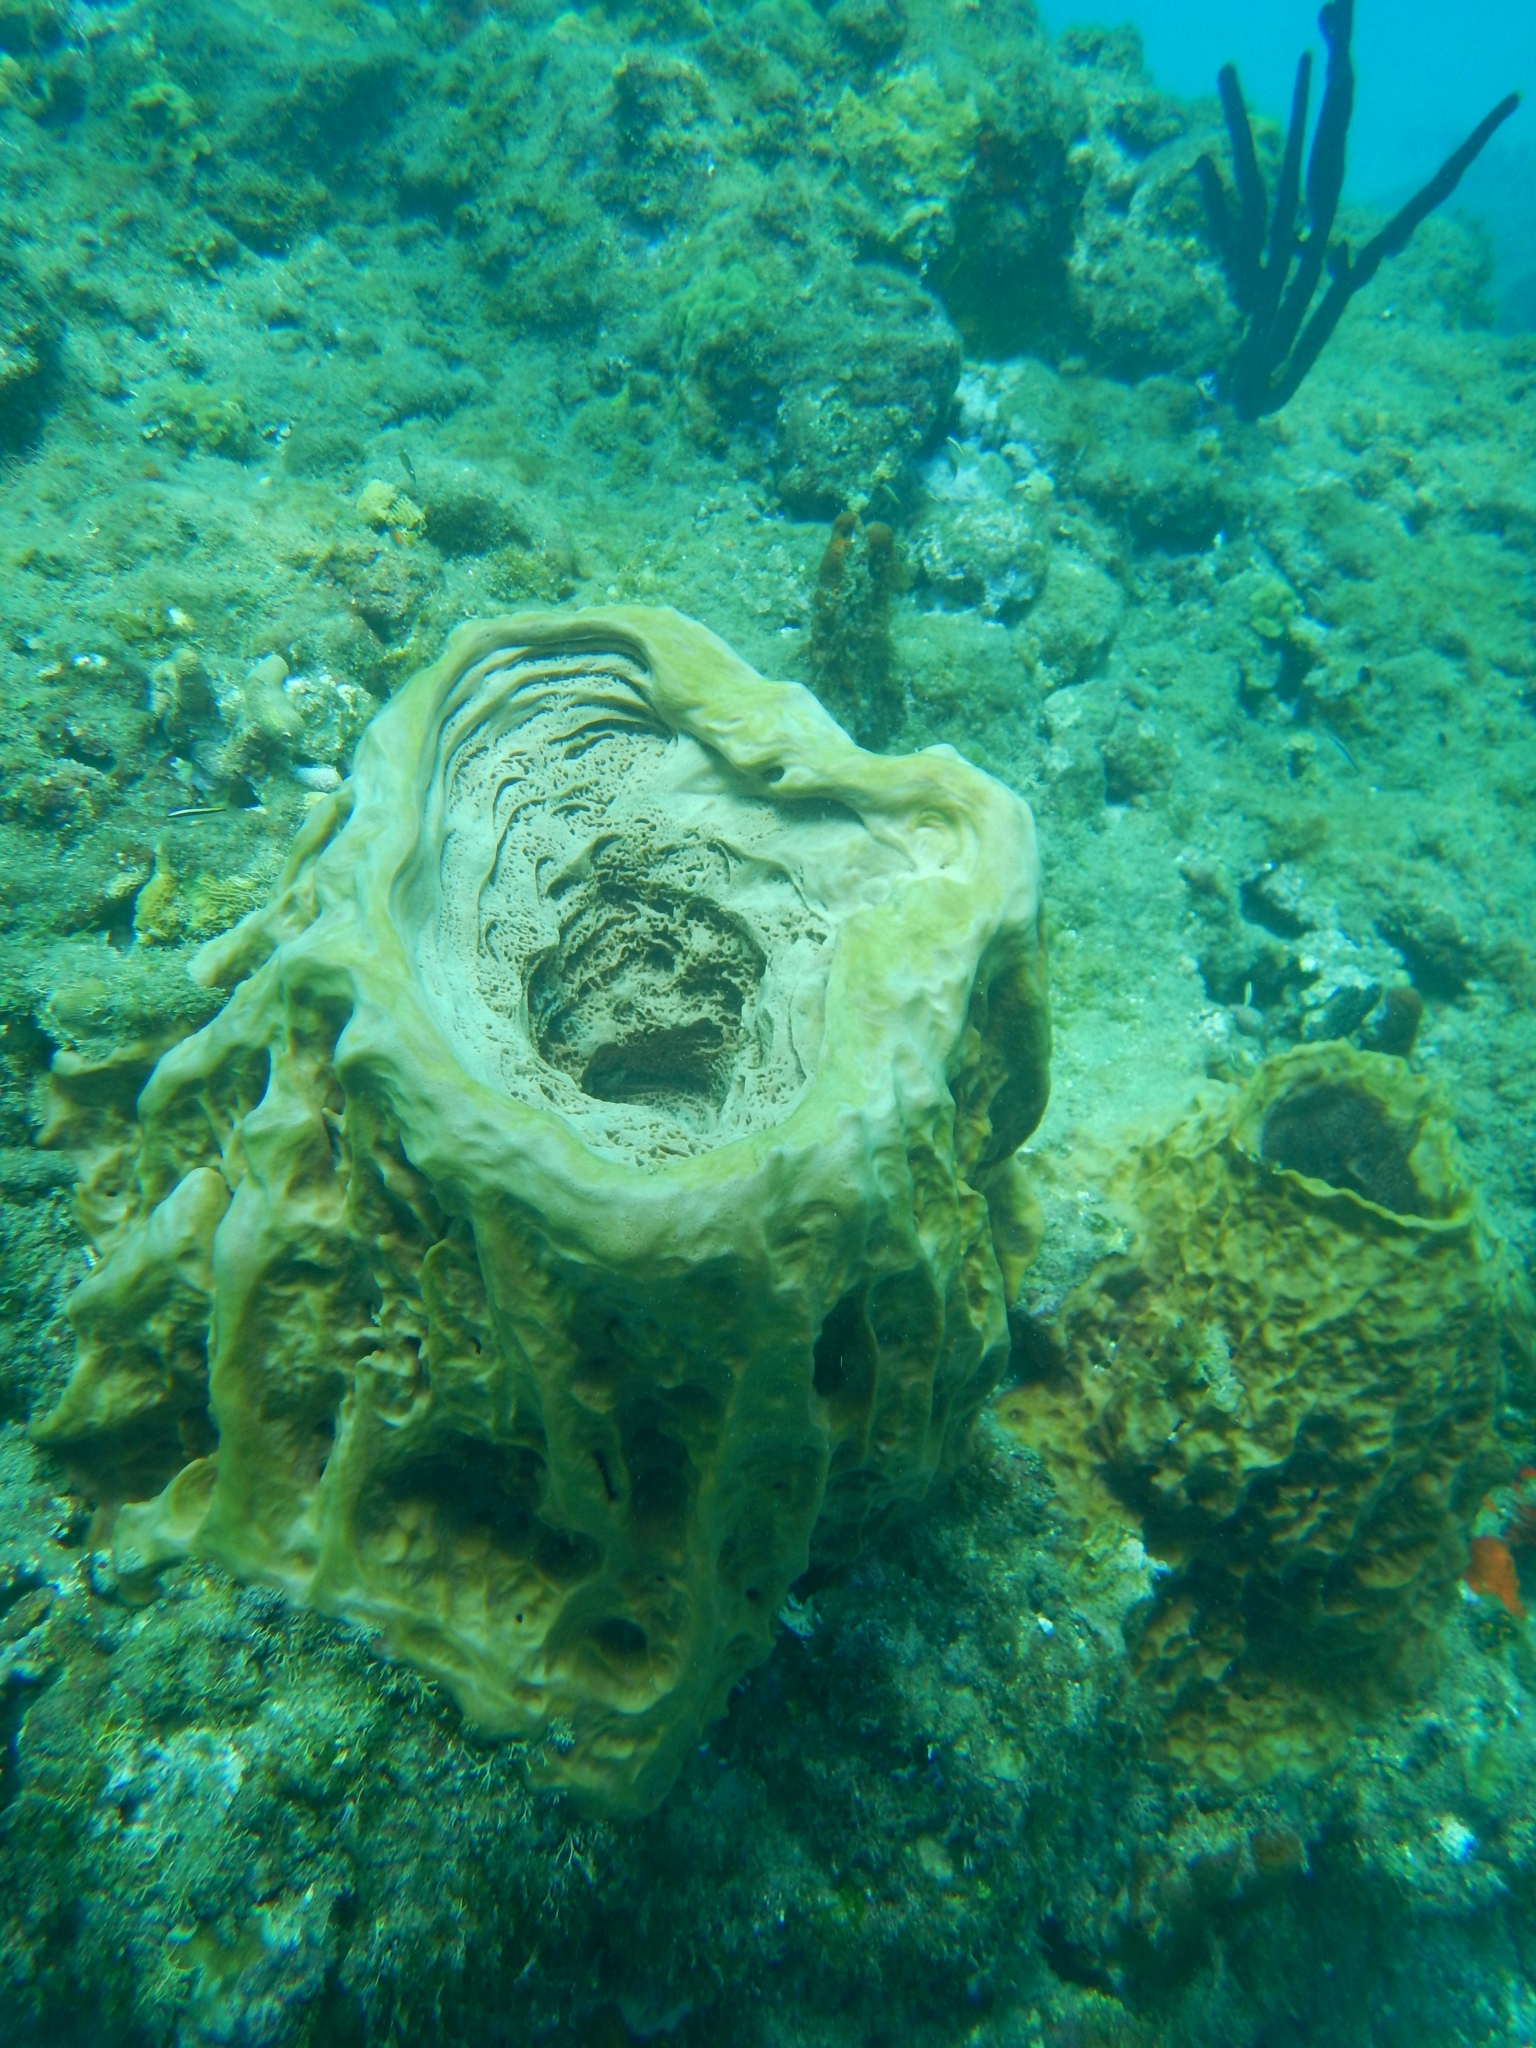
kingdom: Animalia
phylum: Porifera
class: Demospongiae
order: Haplosclerida
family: Petrosiidae
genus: Xestospongia
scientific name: Xestospongia muta
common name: Giant barrel sponge
